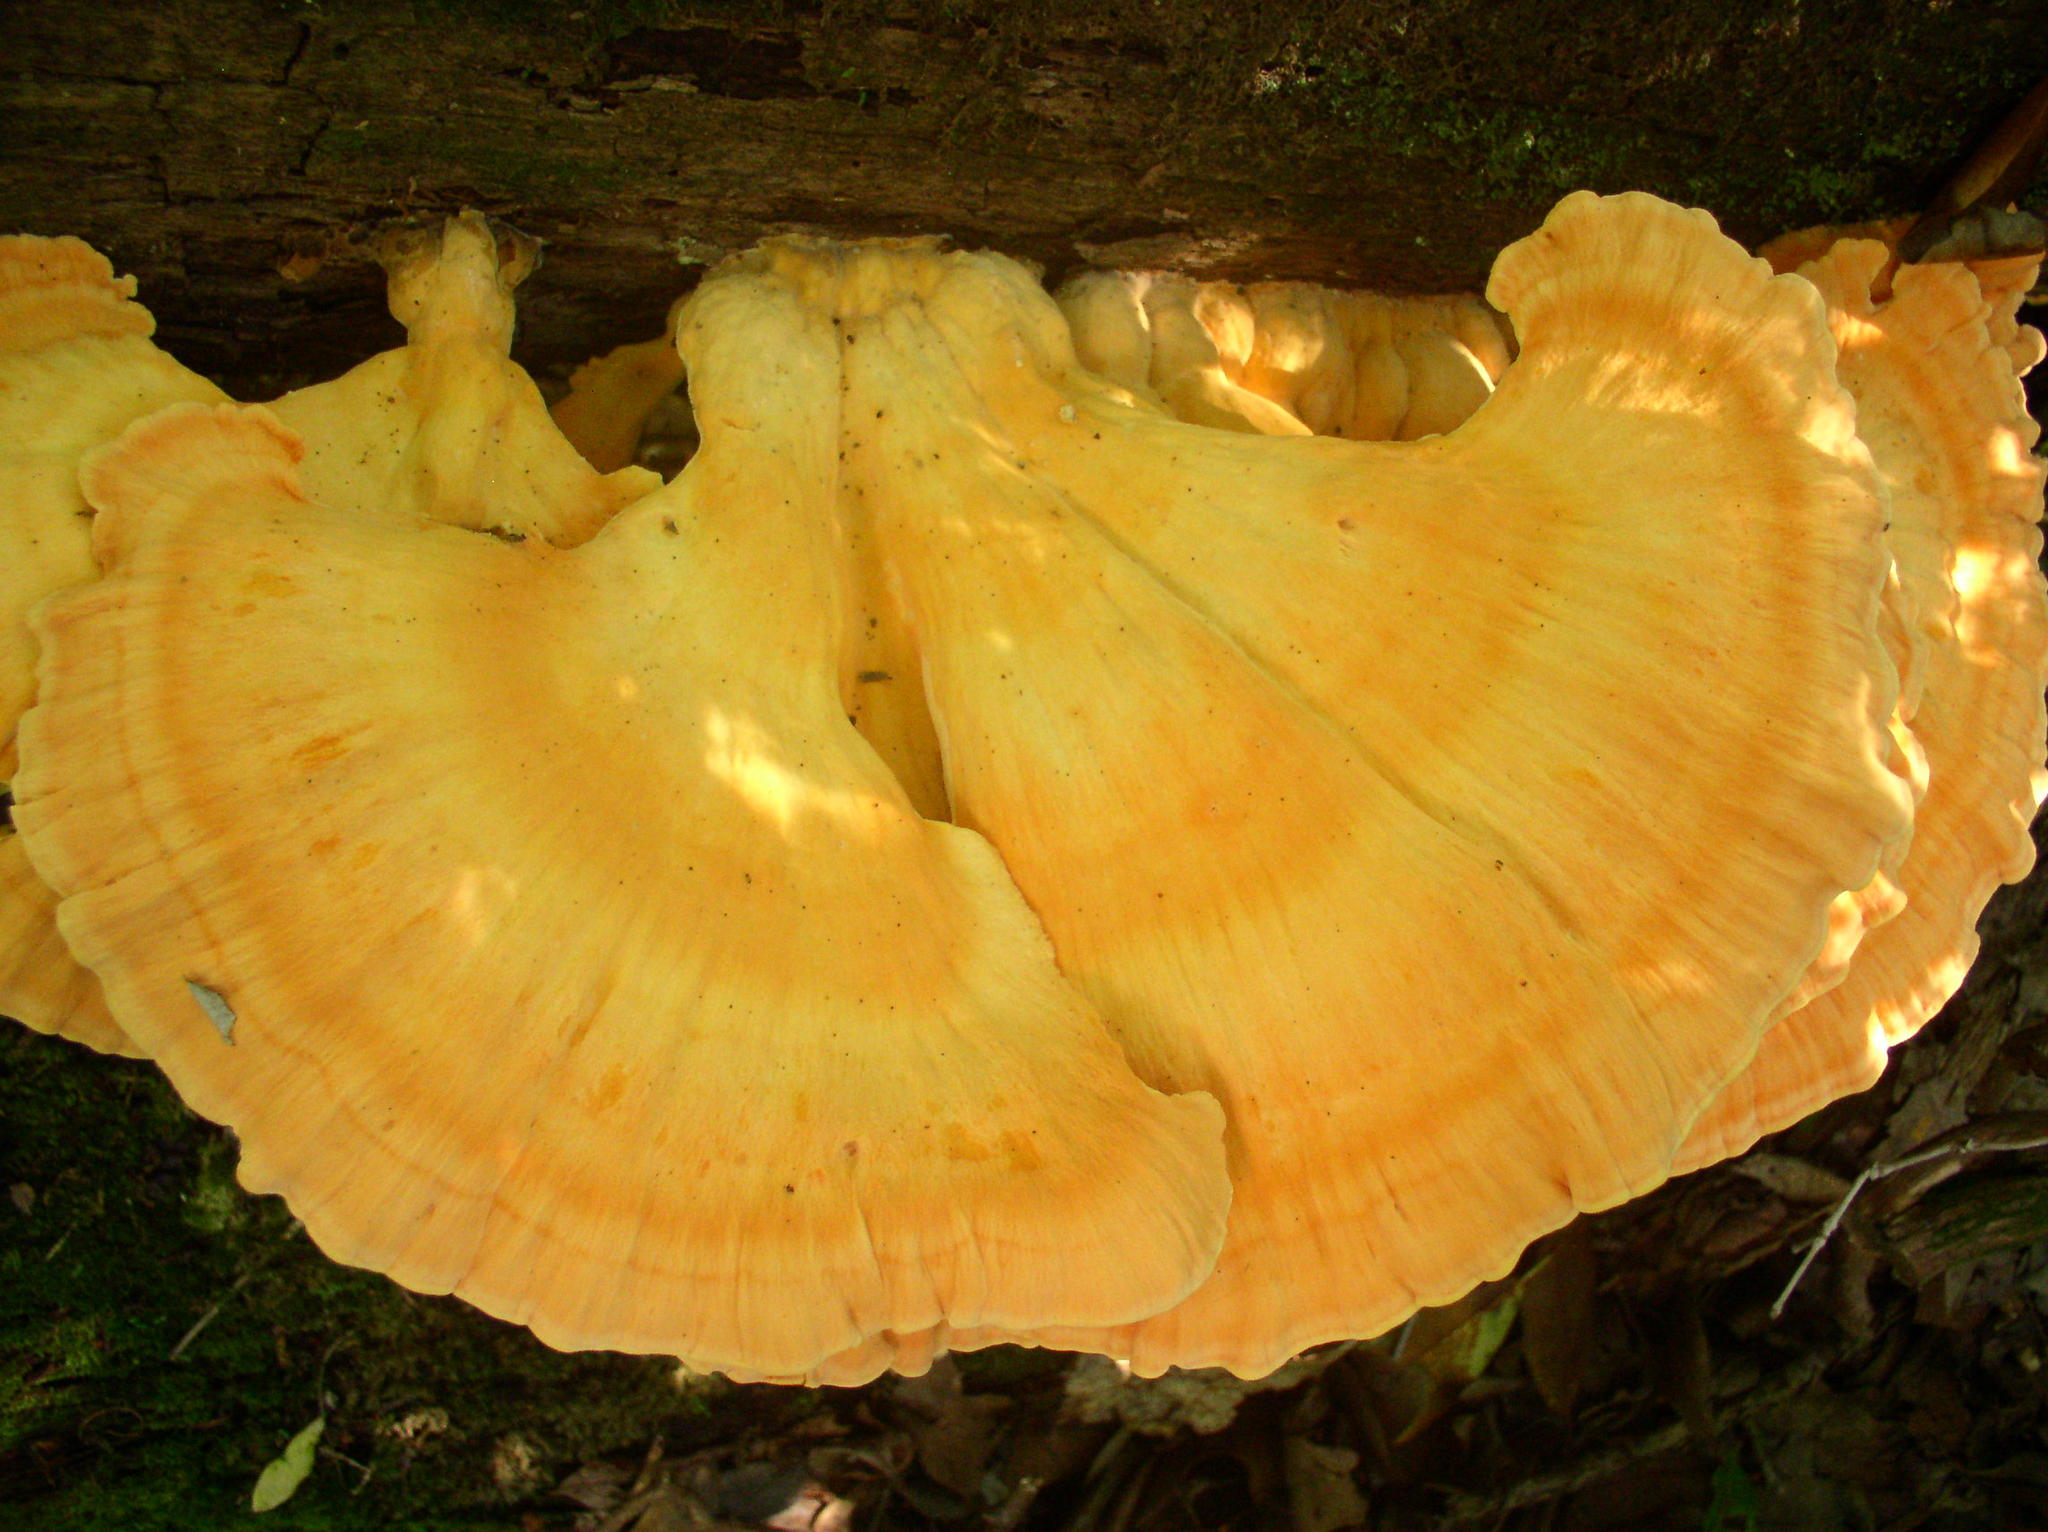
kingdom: Fungi
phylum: Basidiomycota
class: Agaricomycetes
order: Polyporales
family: Laetiporaceae
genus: Laetiporus
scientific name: Laetiporus sulphureus
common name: Chicken of the woods
